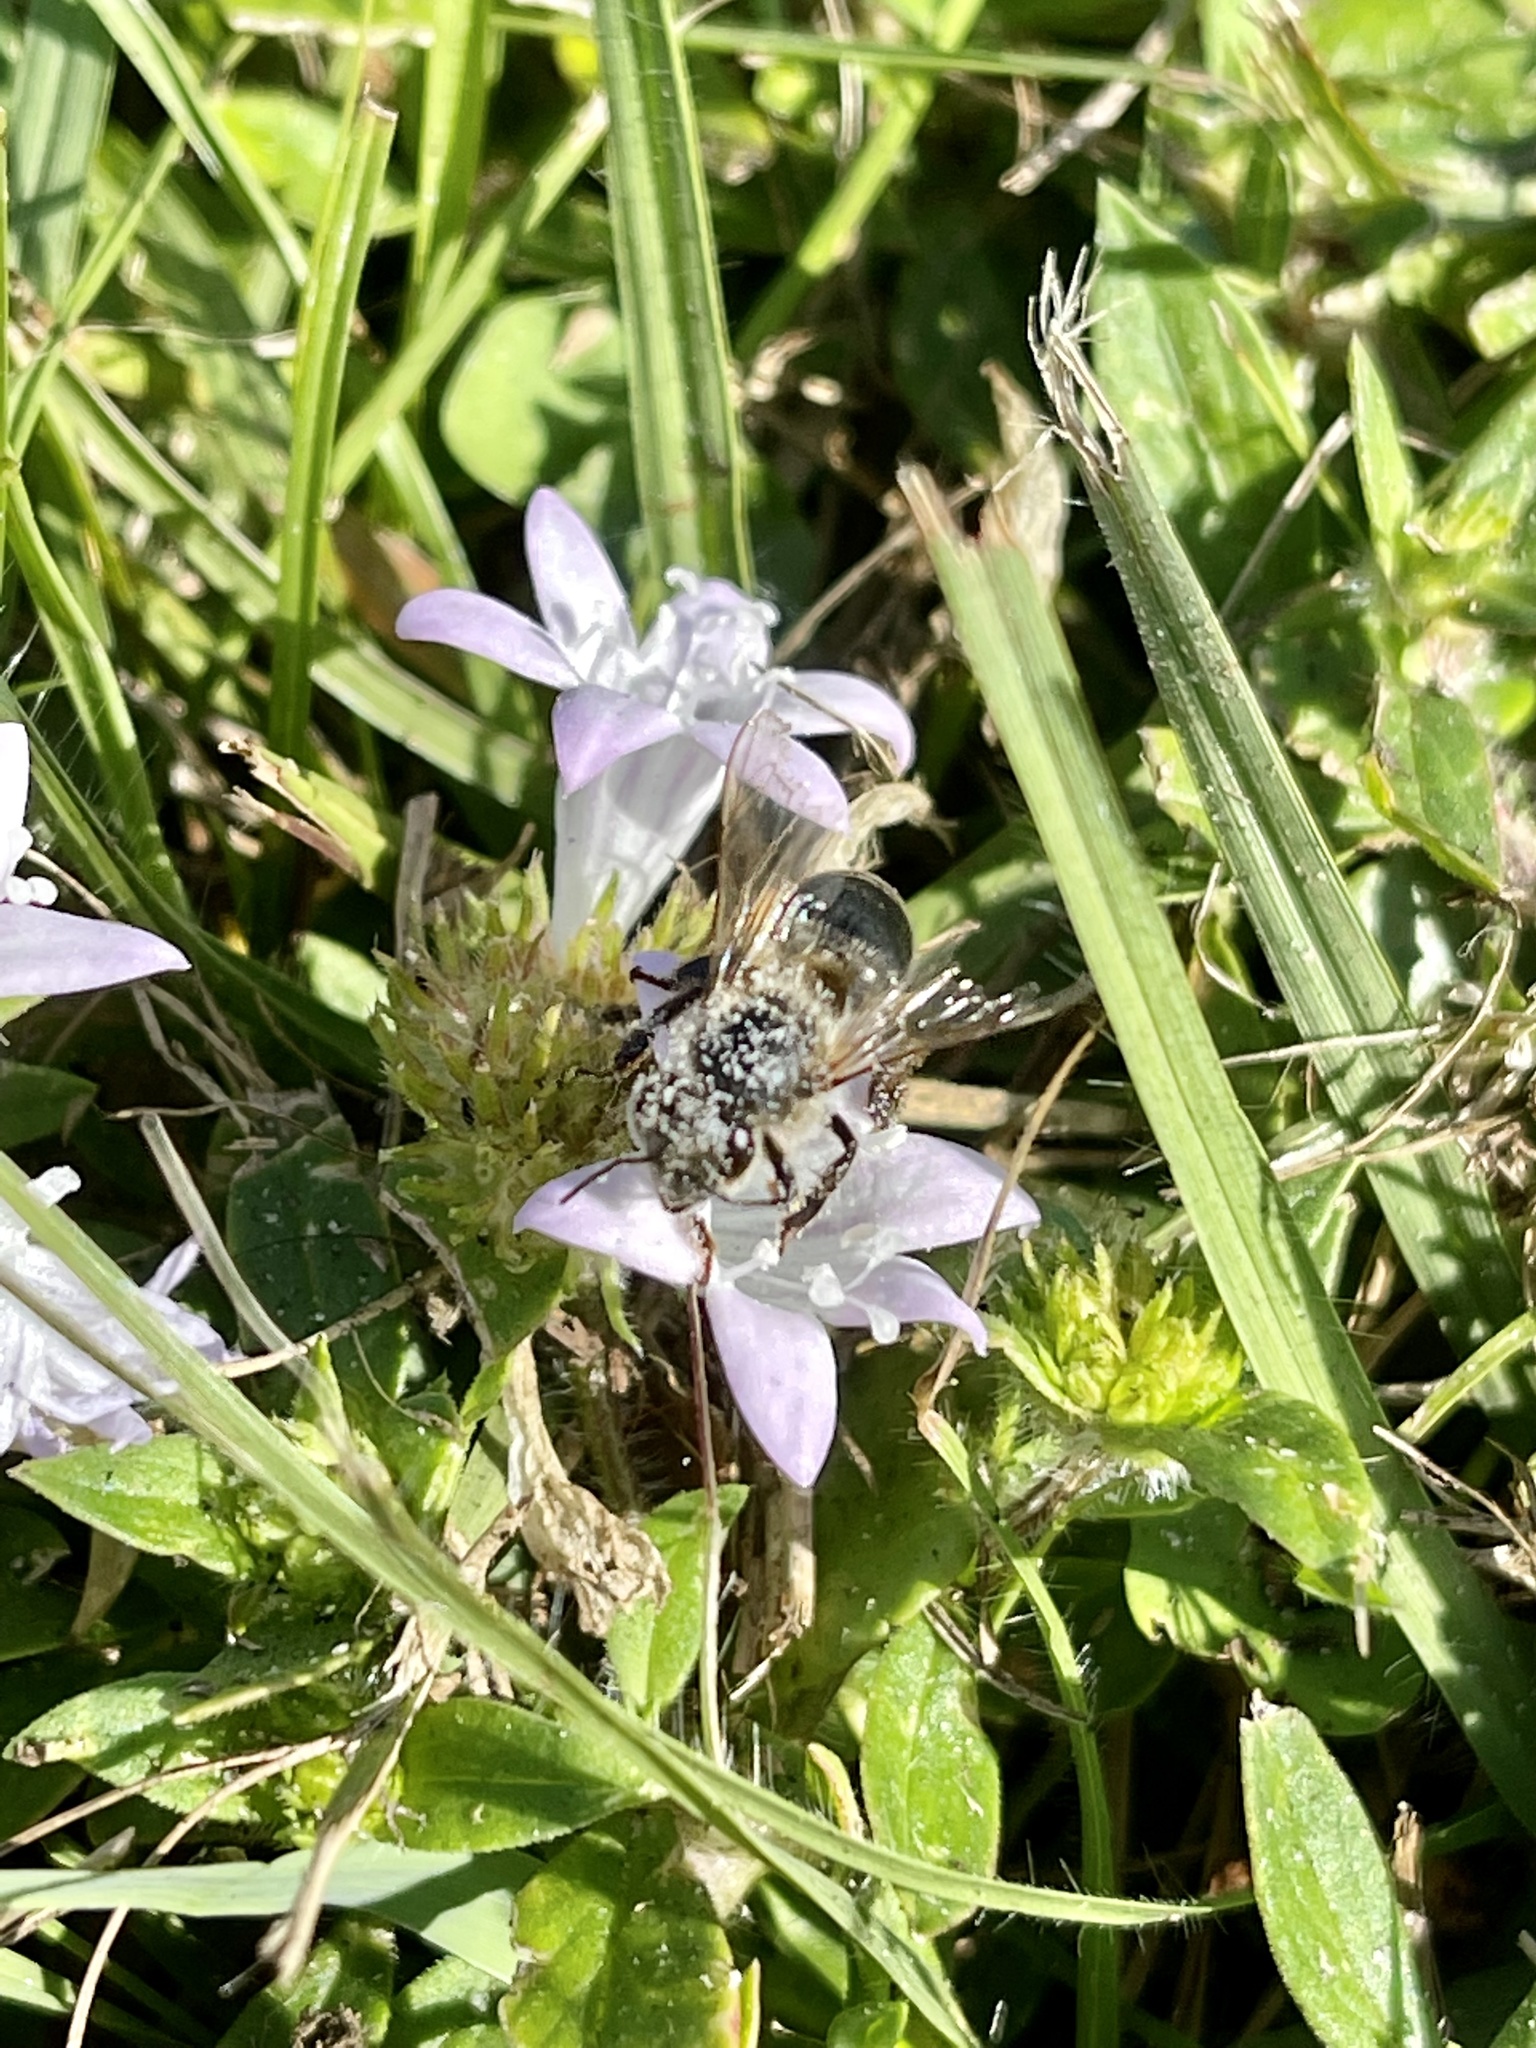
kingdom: Animalia
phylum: Arthropoda
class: Insecta
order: Hymenoptera
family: Apidae
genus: Apis
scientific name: Apis mellifera
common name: Honey bee
